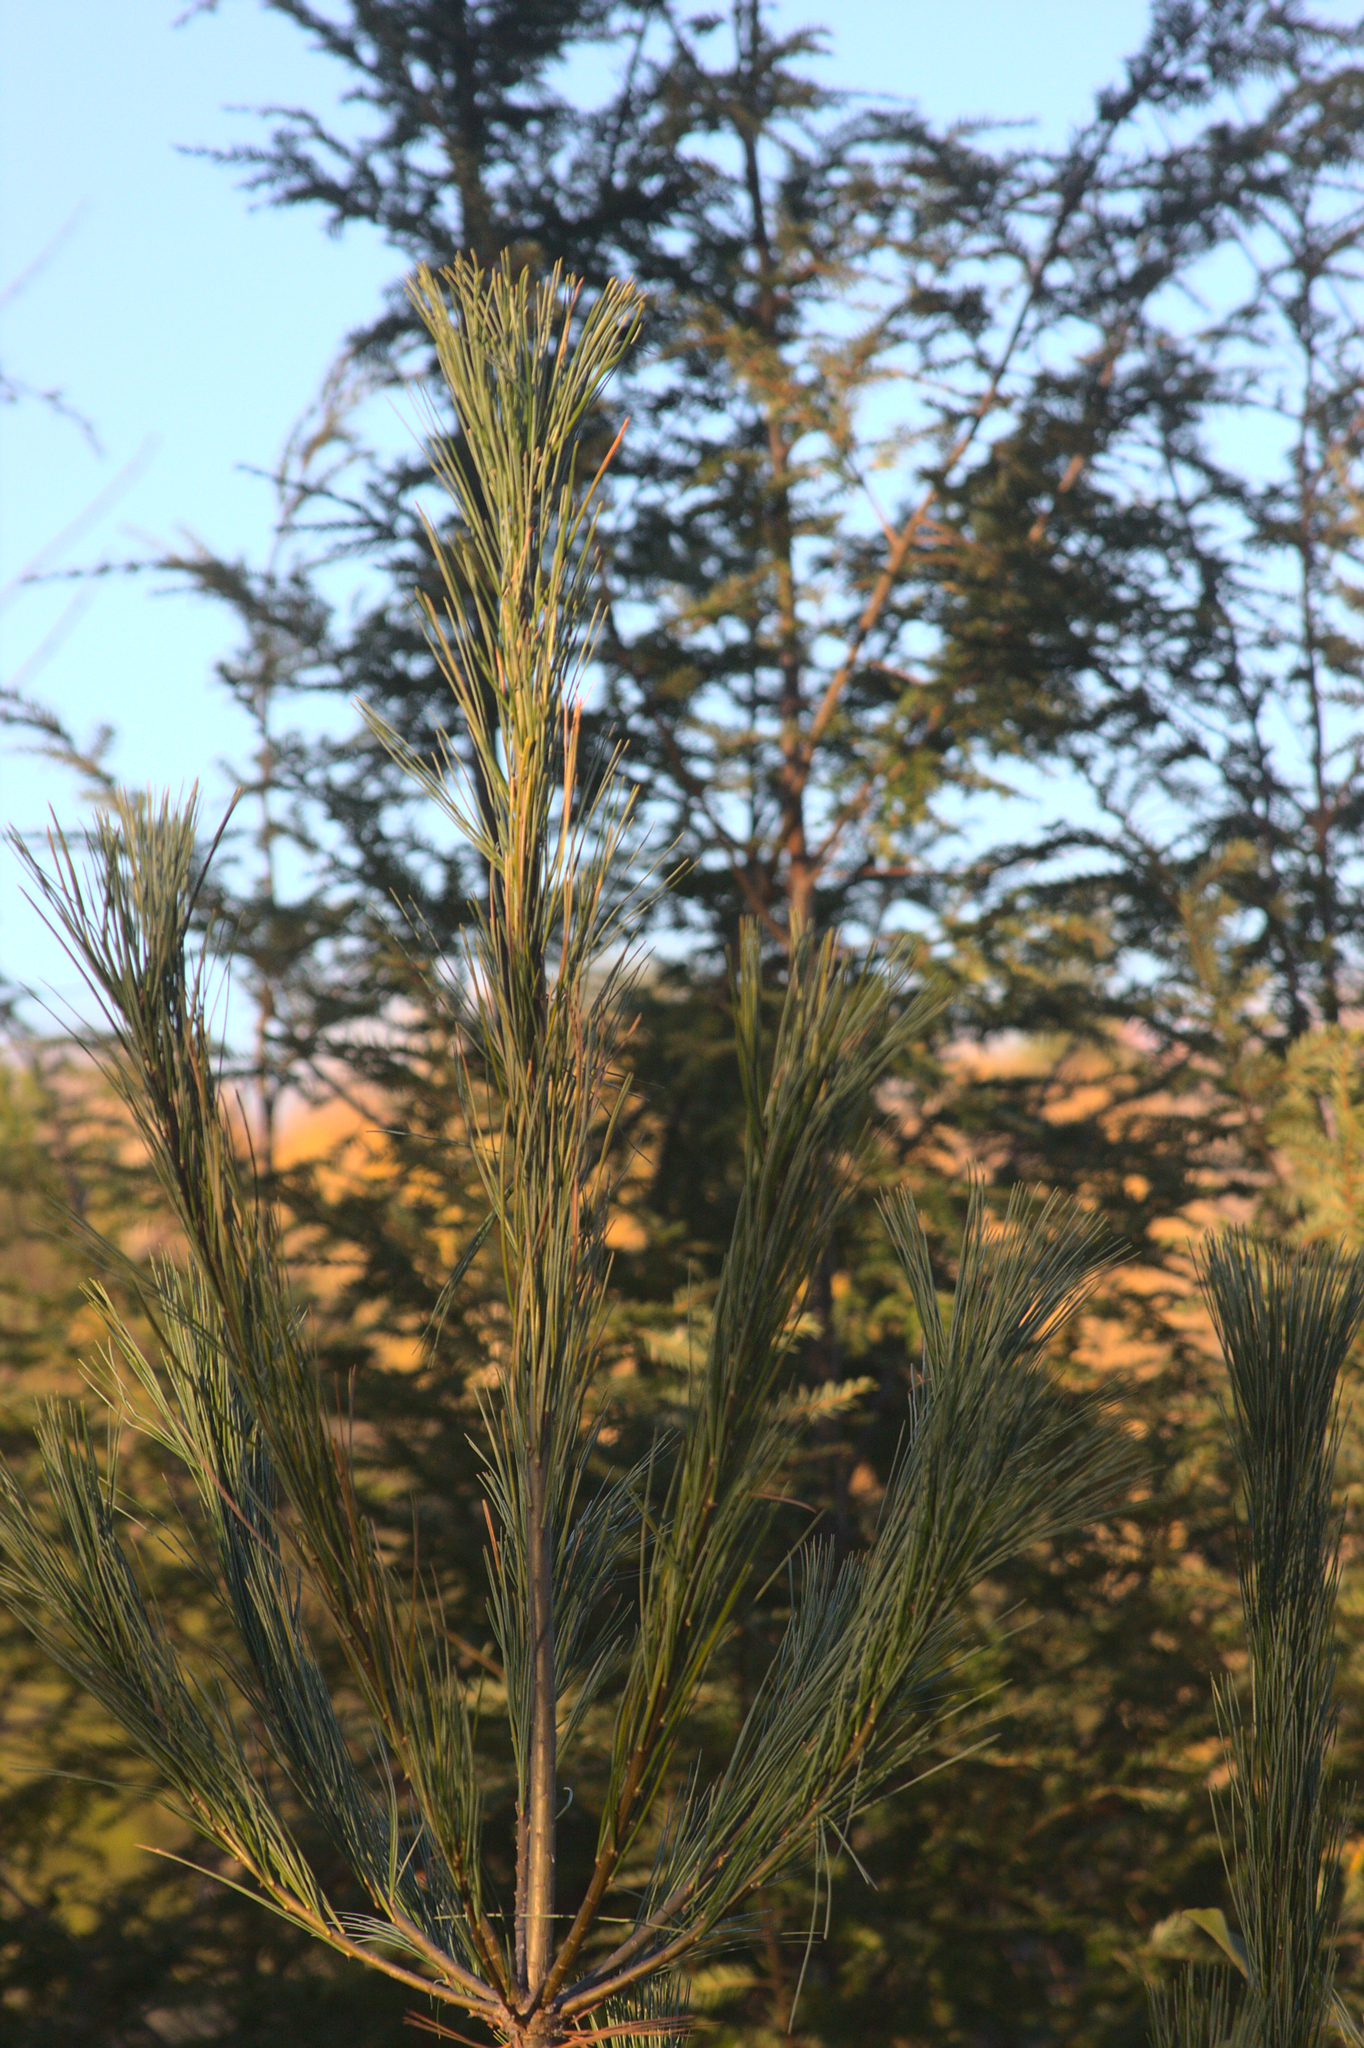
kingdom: Plantae
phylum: Tracheophyta
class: Pinopsida
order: Pinales
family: Pinaceae
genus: Pinus
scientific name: Pinus strobus
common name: Weymouth pine
